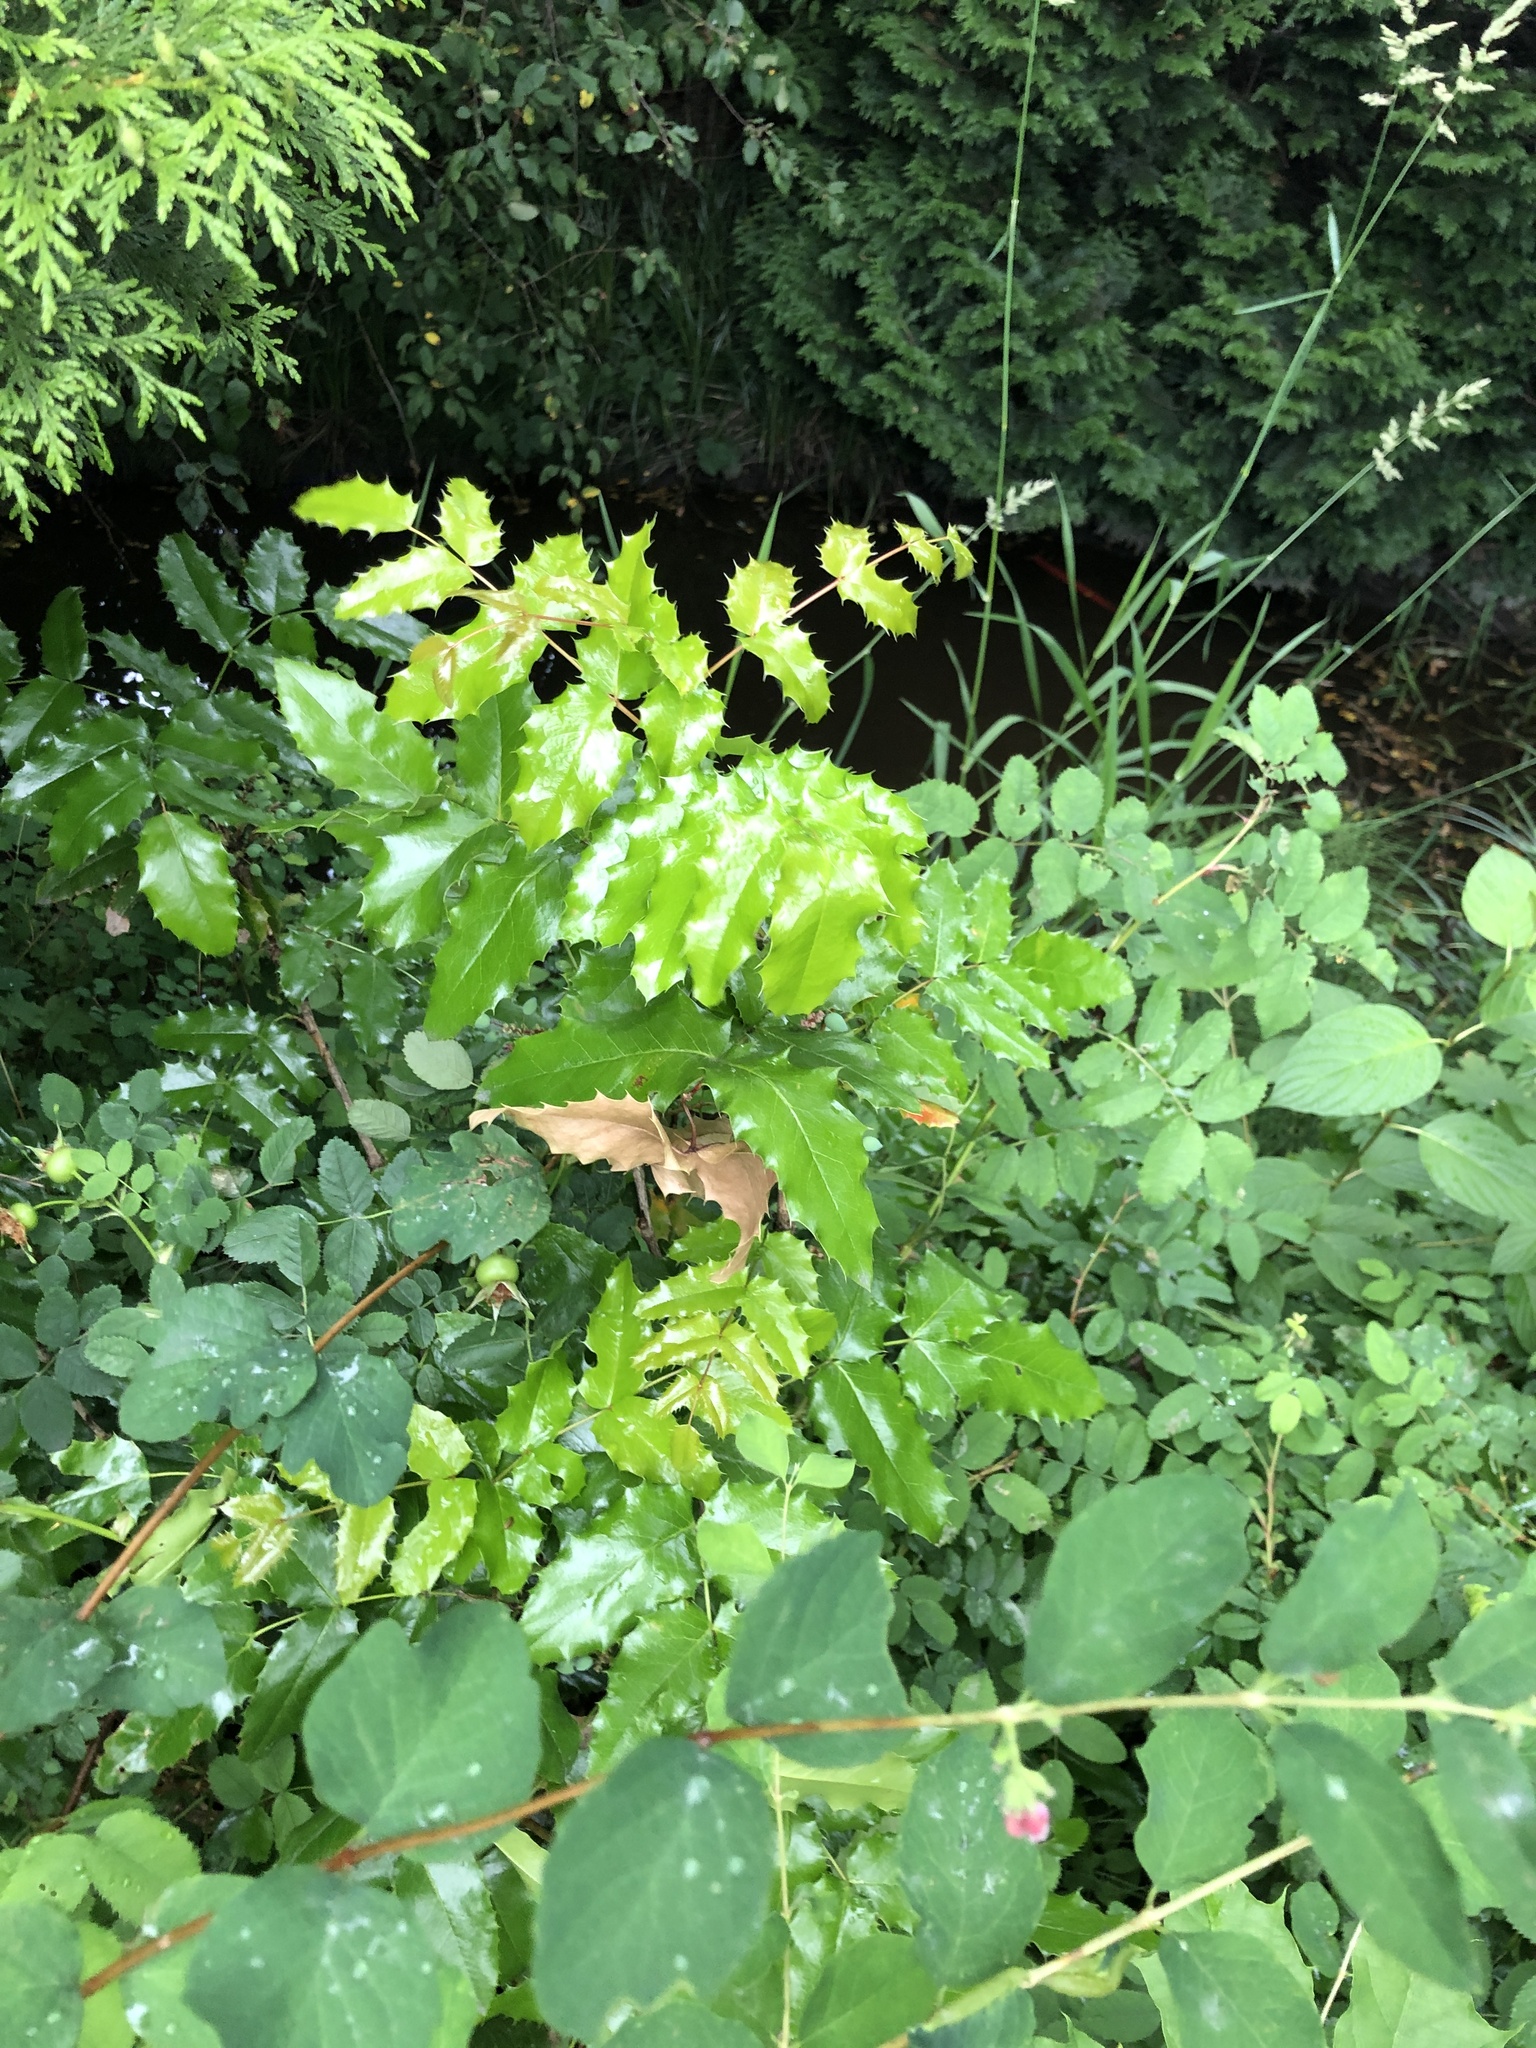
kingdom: Plantae
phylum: Tracheophyta
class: Magnoliopsida
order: Ranunculales
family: Berberidaceae
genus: Mahonia
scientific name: Mahonia aquifolium
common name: Oregon-grape
